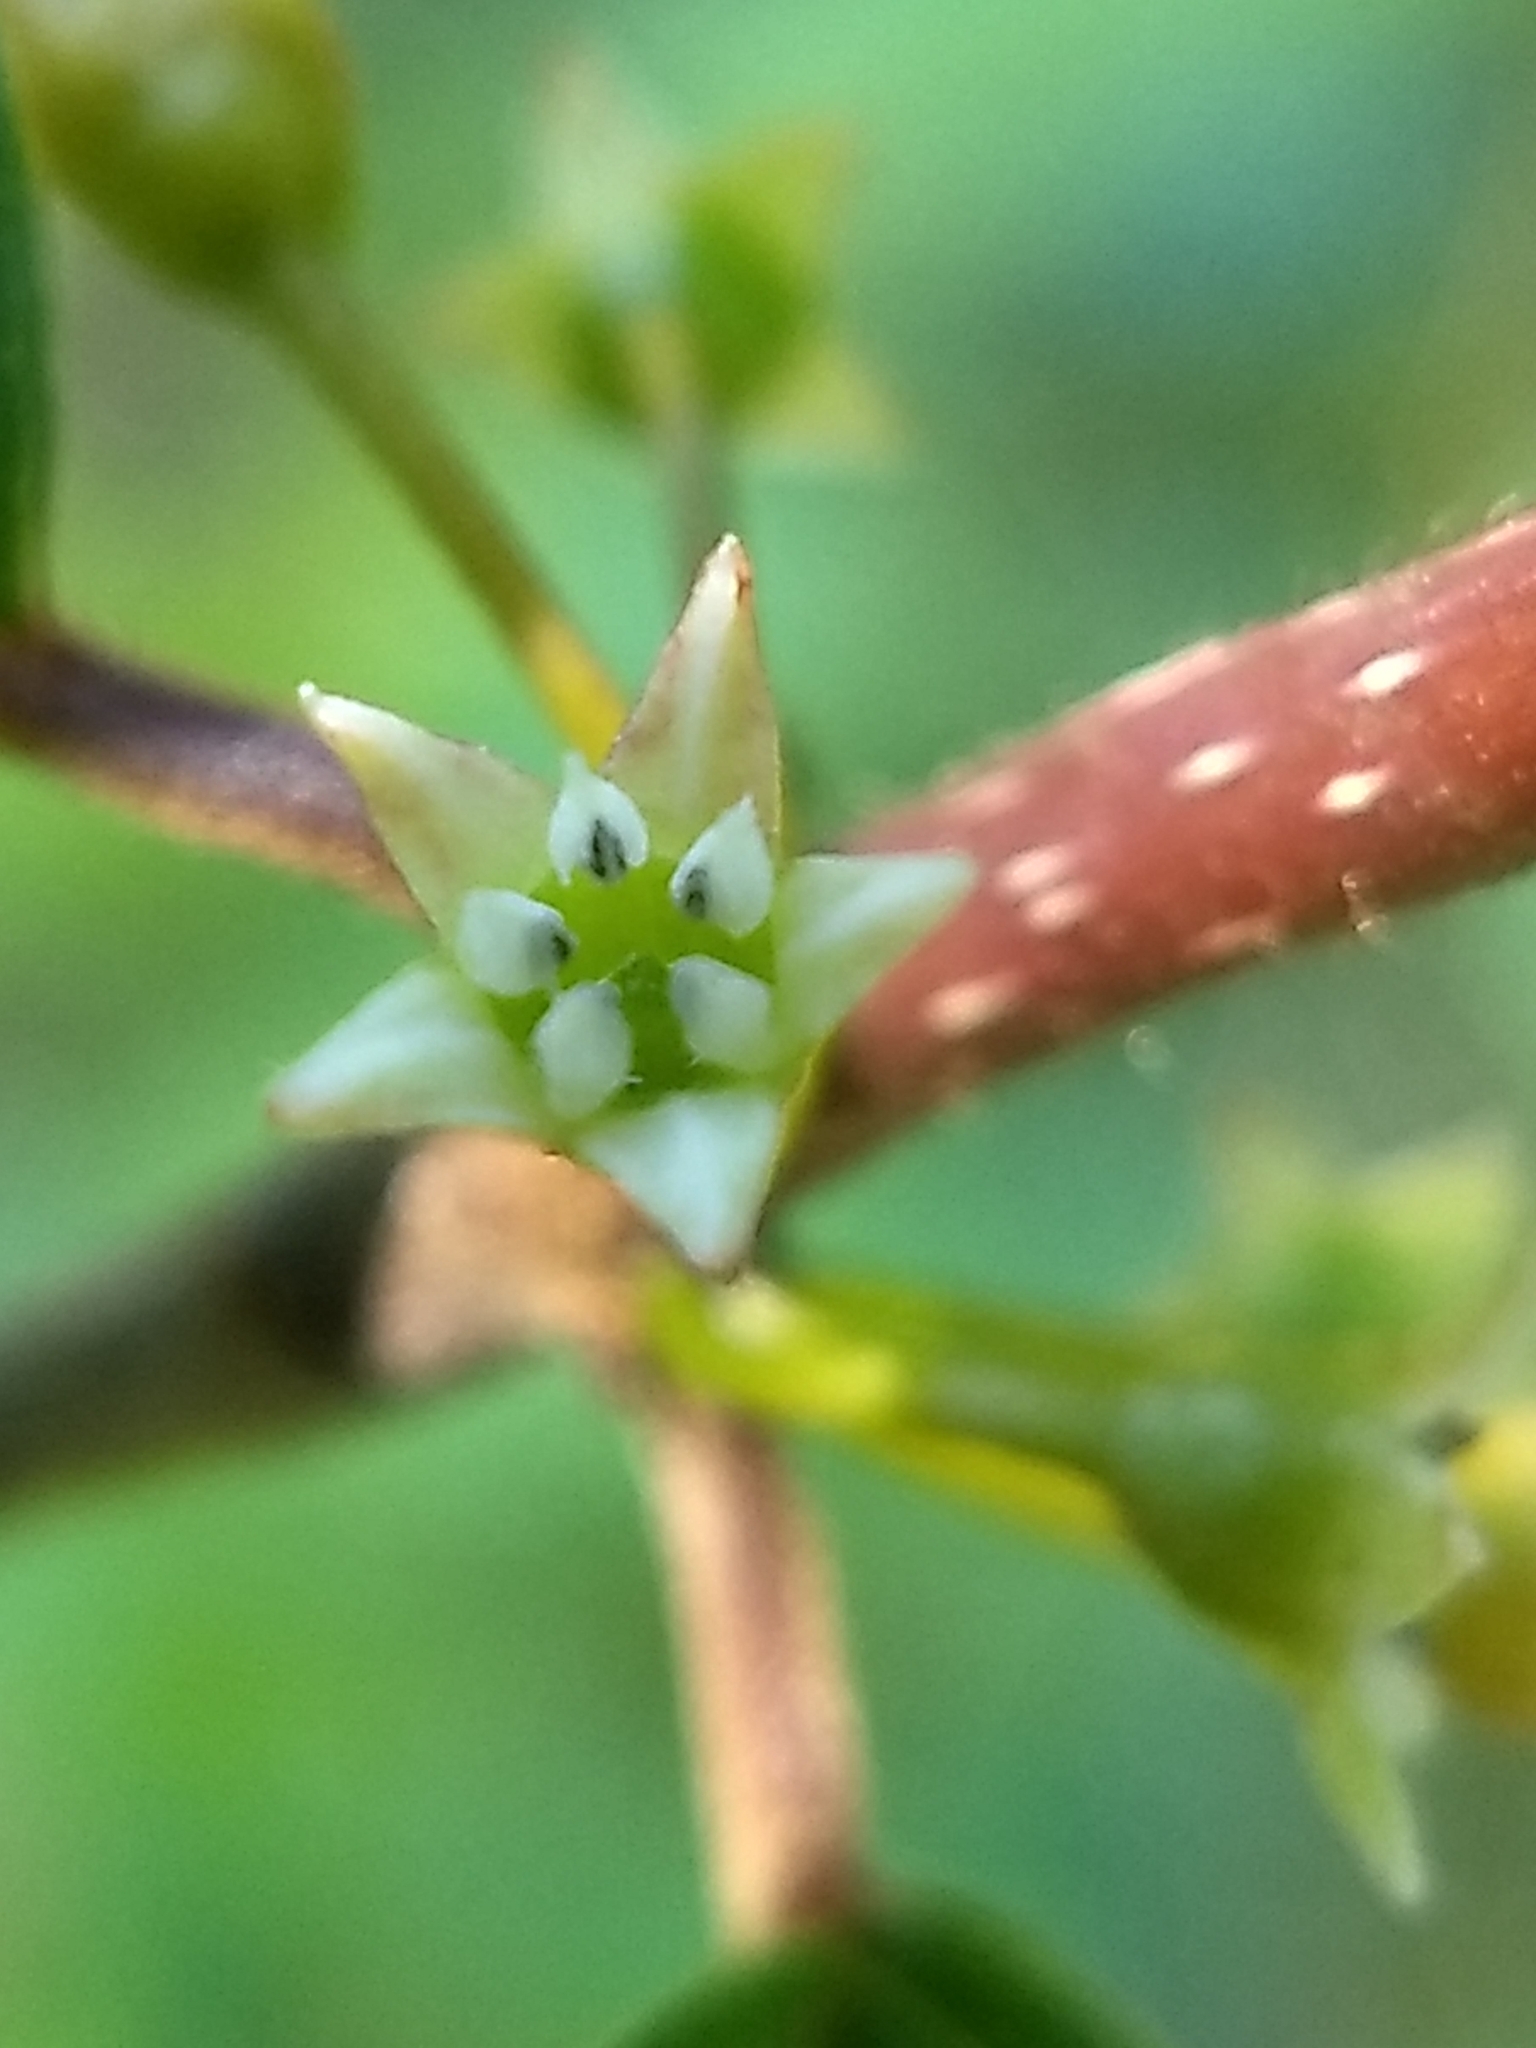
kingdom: Plantae
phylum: Tracheophyta
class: Magnoliopsida
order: Rosales
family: Rhamnaceae
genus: Frangula
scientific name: Frangula alnus
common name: Alder buckthorn
